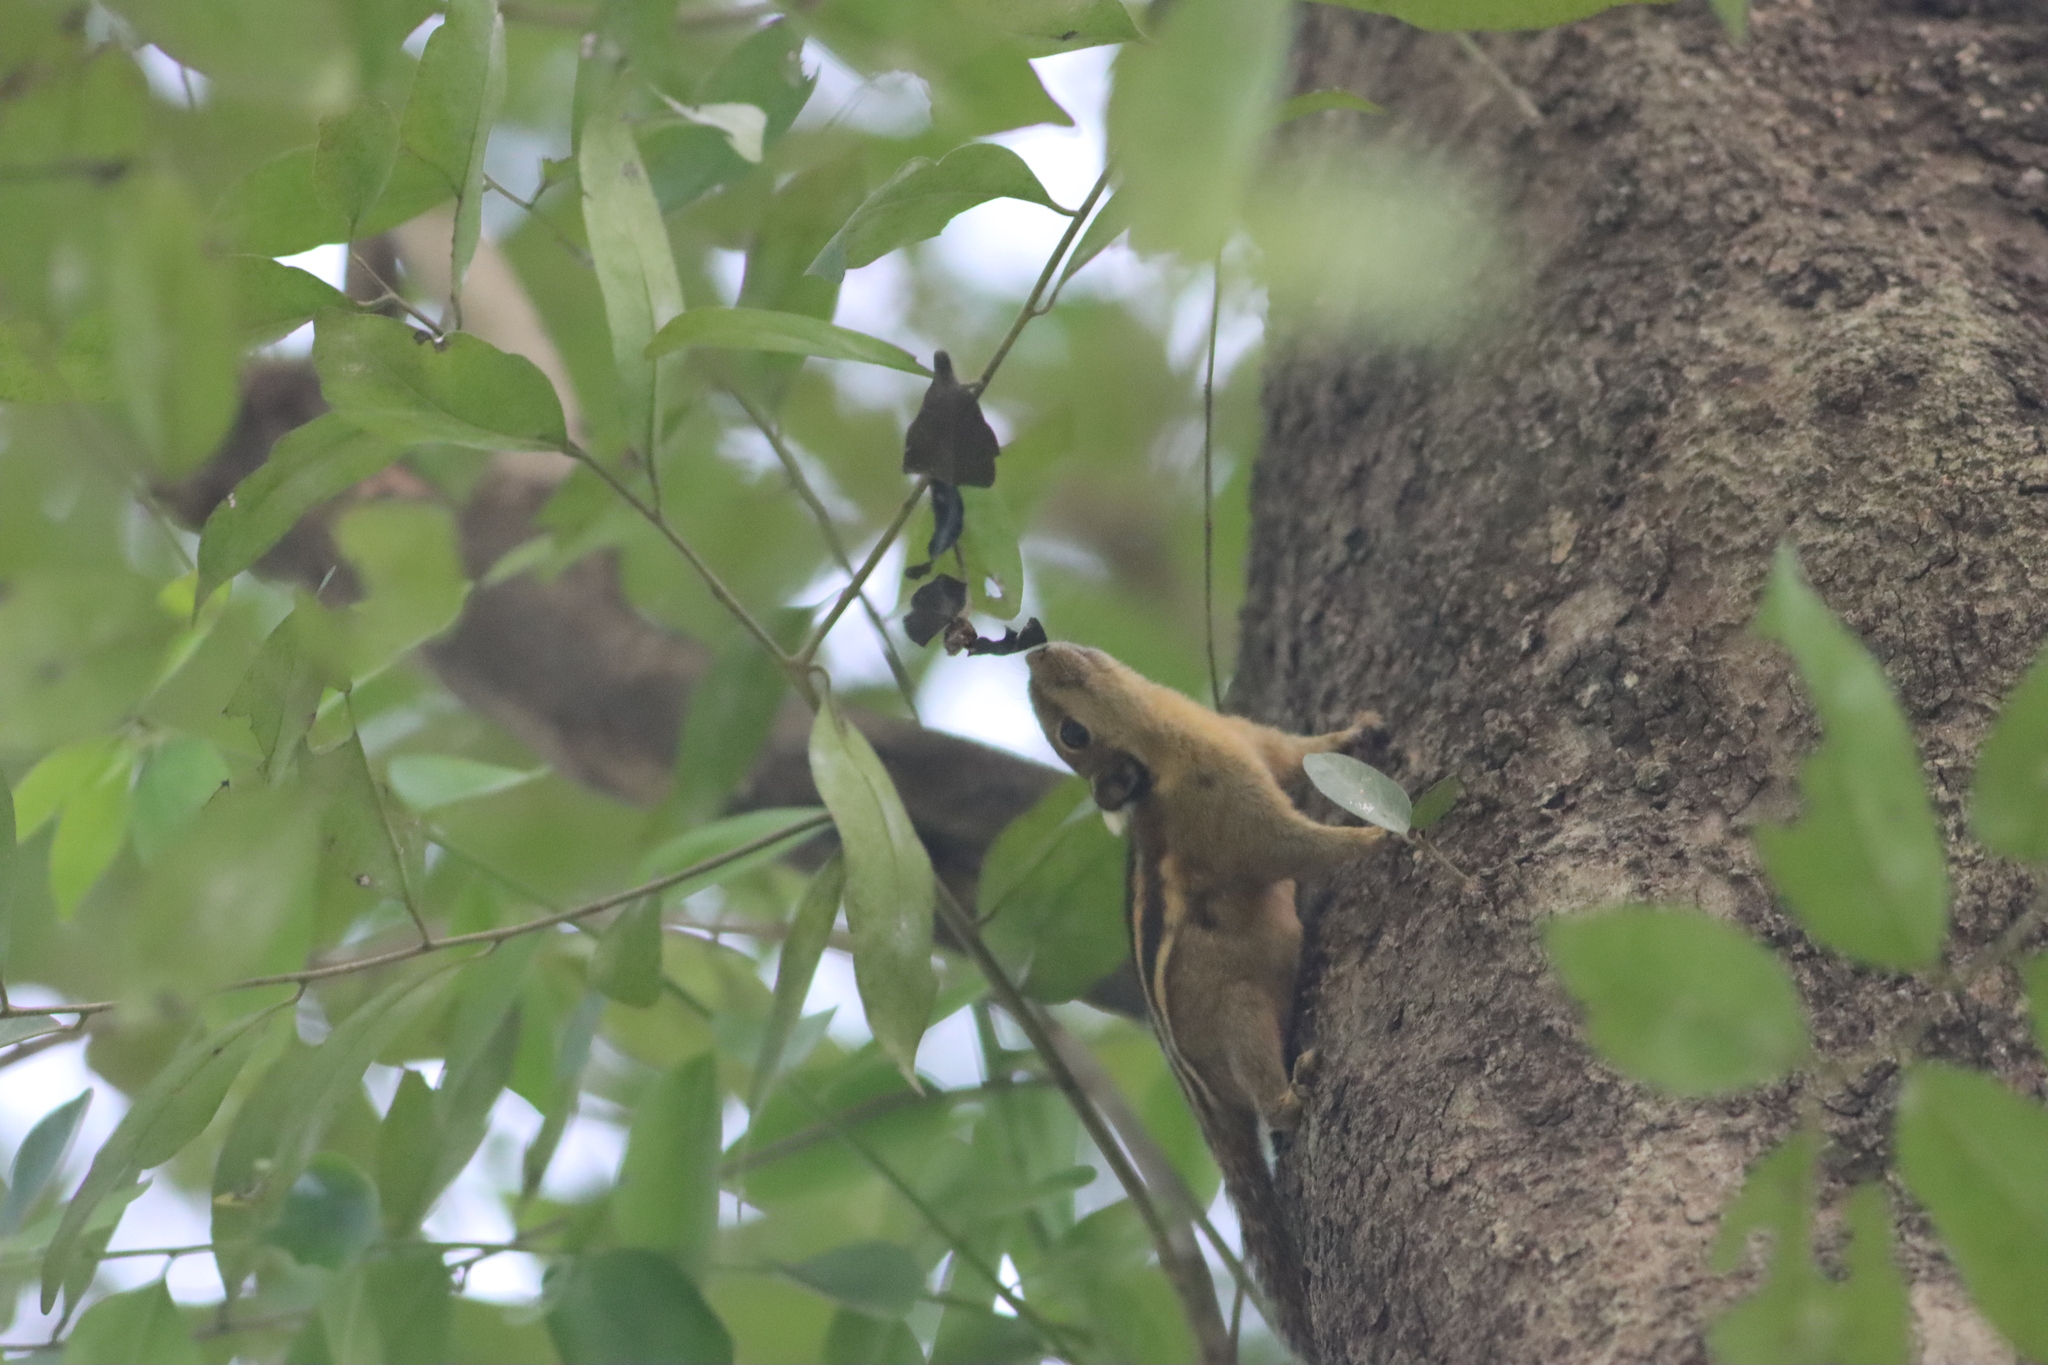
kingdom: Animalia
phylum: Chordata
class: Mammalia
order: Rodentia
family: Sciuridae
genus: Tamiops
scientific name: Tamiops rodolphii
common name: Cambodian striped squirrel
